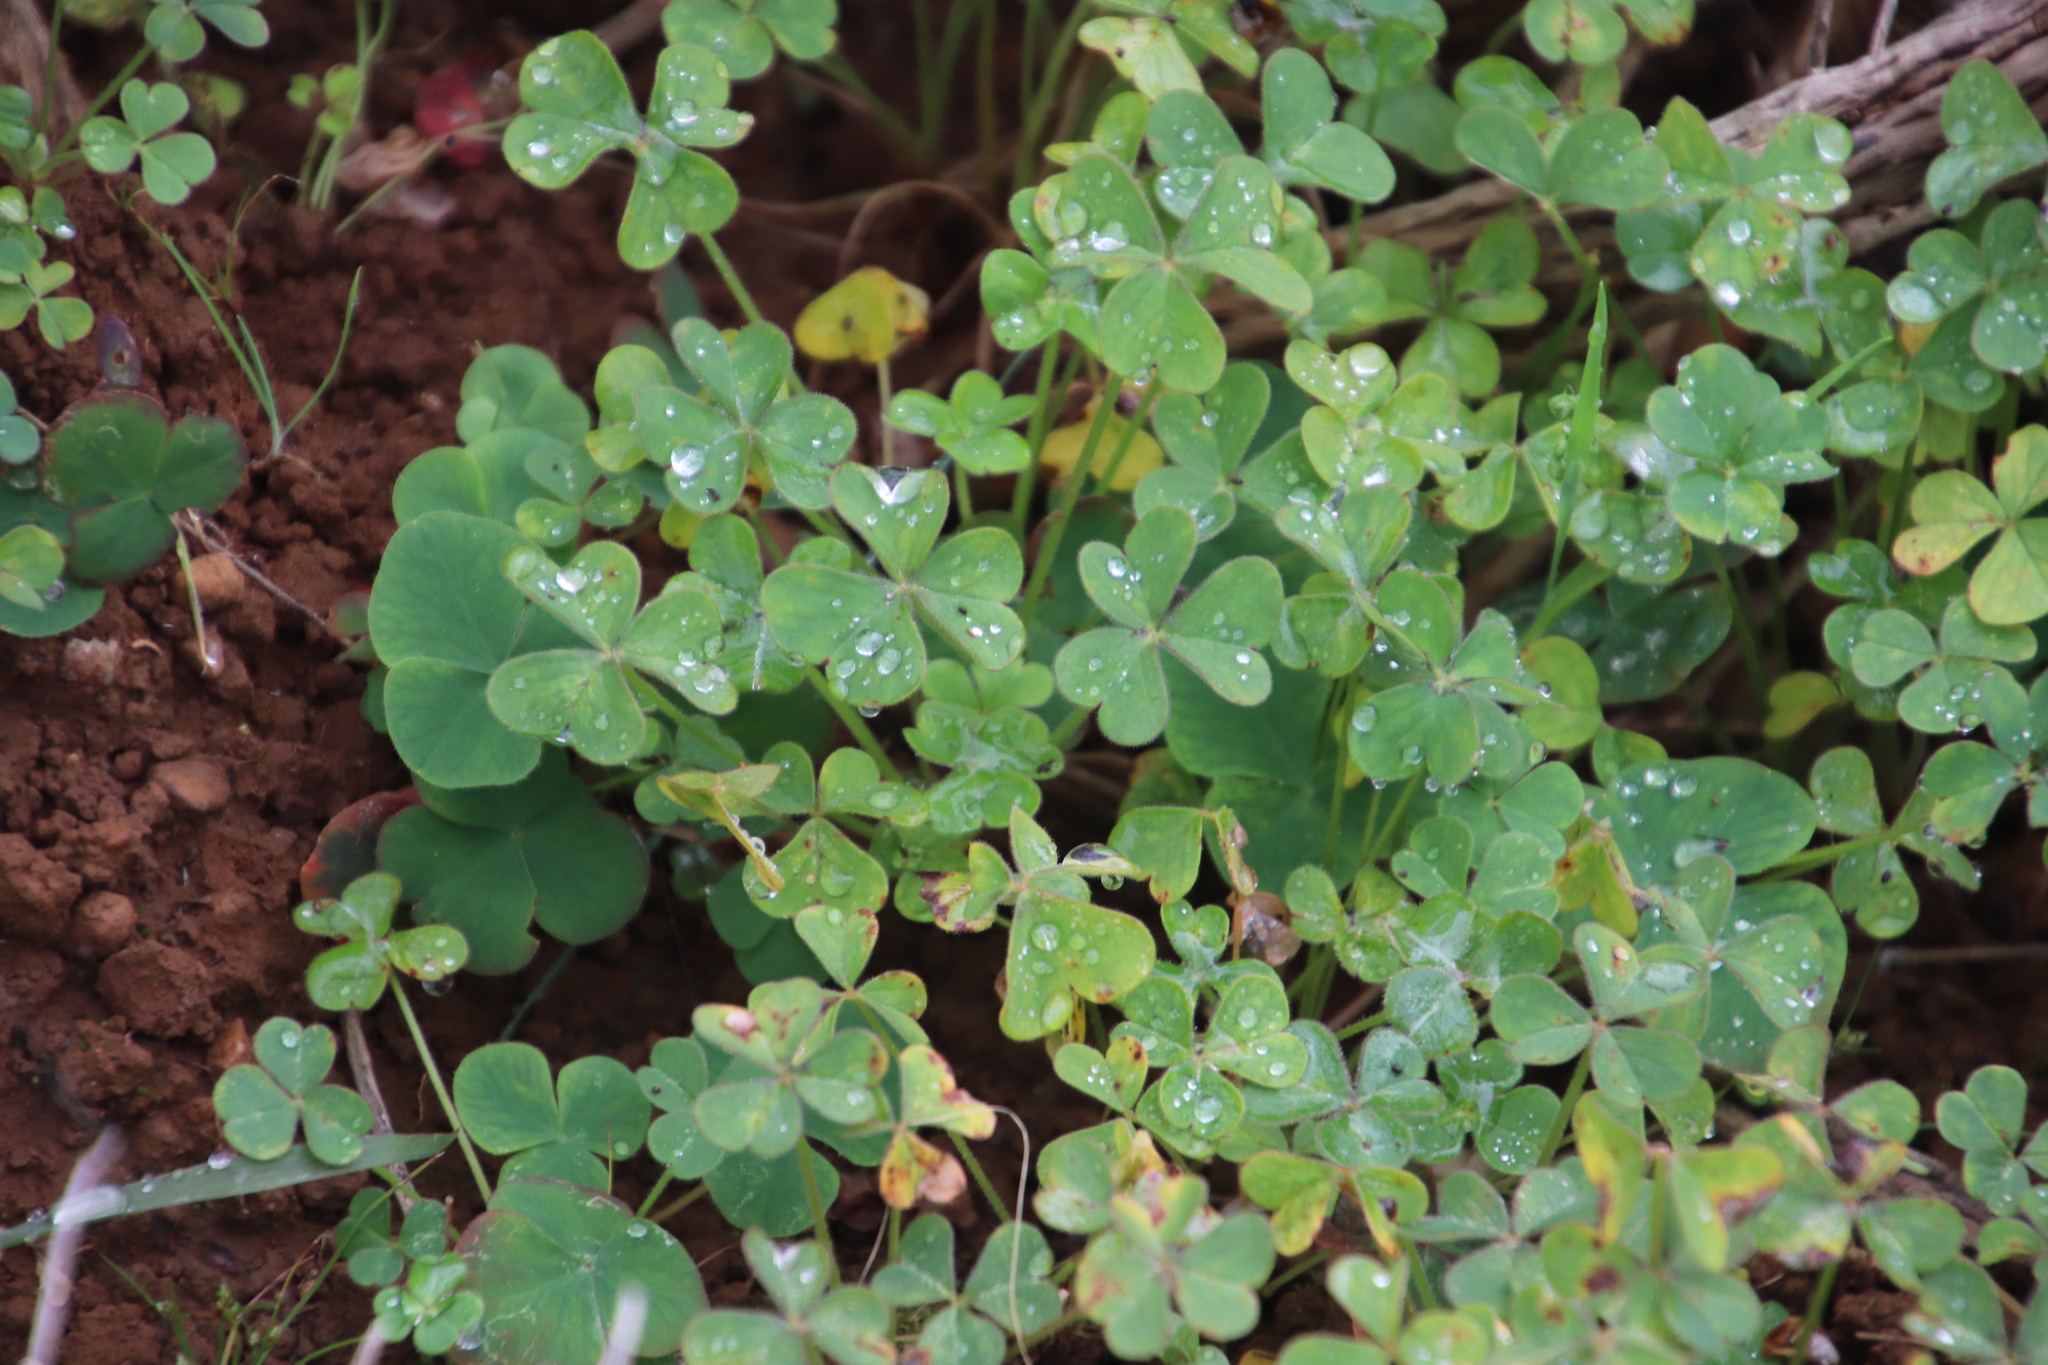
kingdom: Plantae
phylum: Tracheophyta
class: Magnoliopsida
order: Oxalidales
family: Oxalidaceae
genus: Oxalis
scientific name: Oxalis pes-caprae
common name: Bermuda-buttercup
